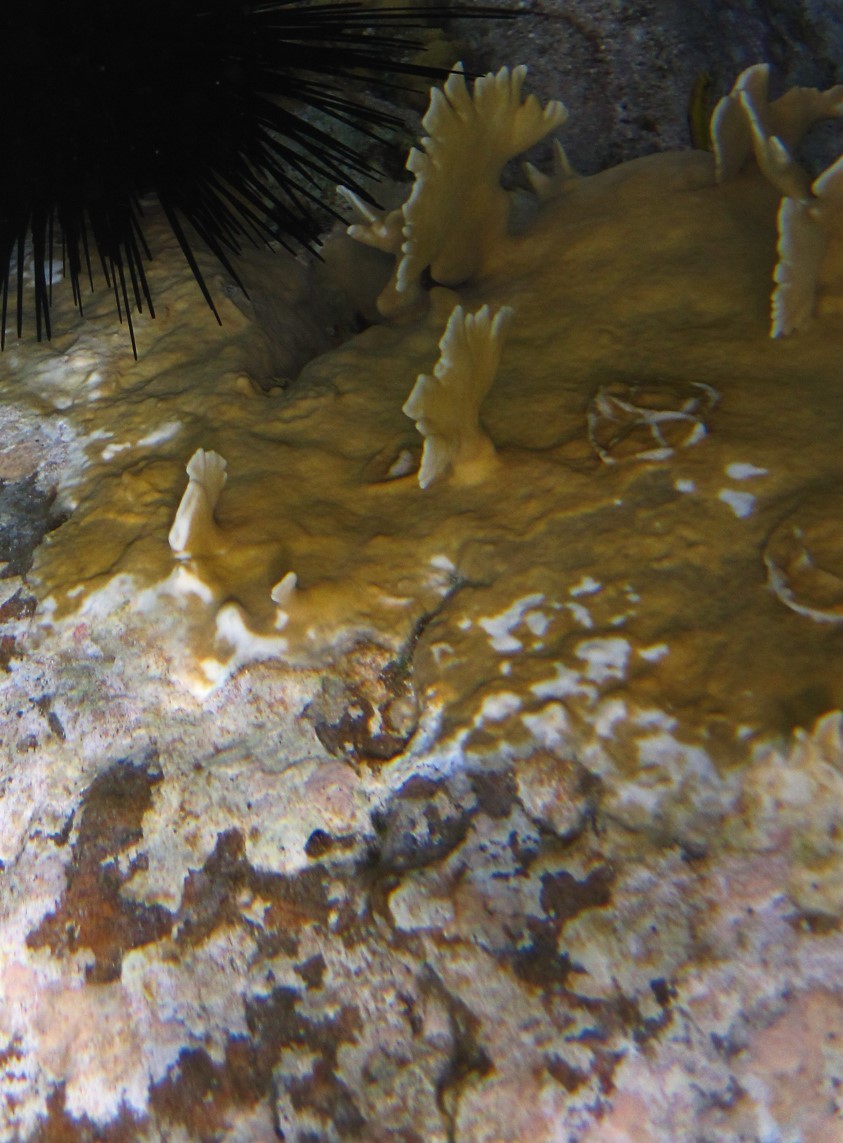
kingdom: Animalia
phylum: Cnidaria
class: Hydrozoa
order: Anthoathecata
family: Milleporidae
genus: Millepora
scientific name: Millepora complanata
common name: Bladed fire coral
